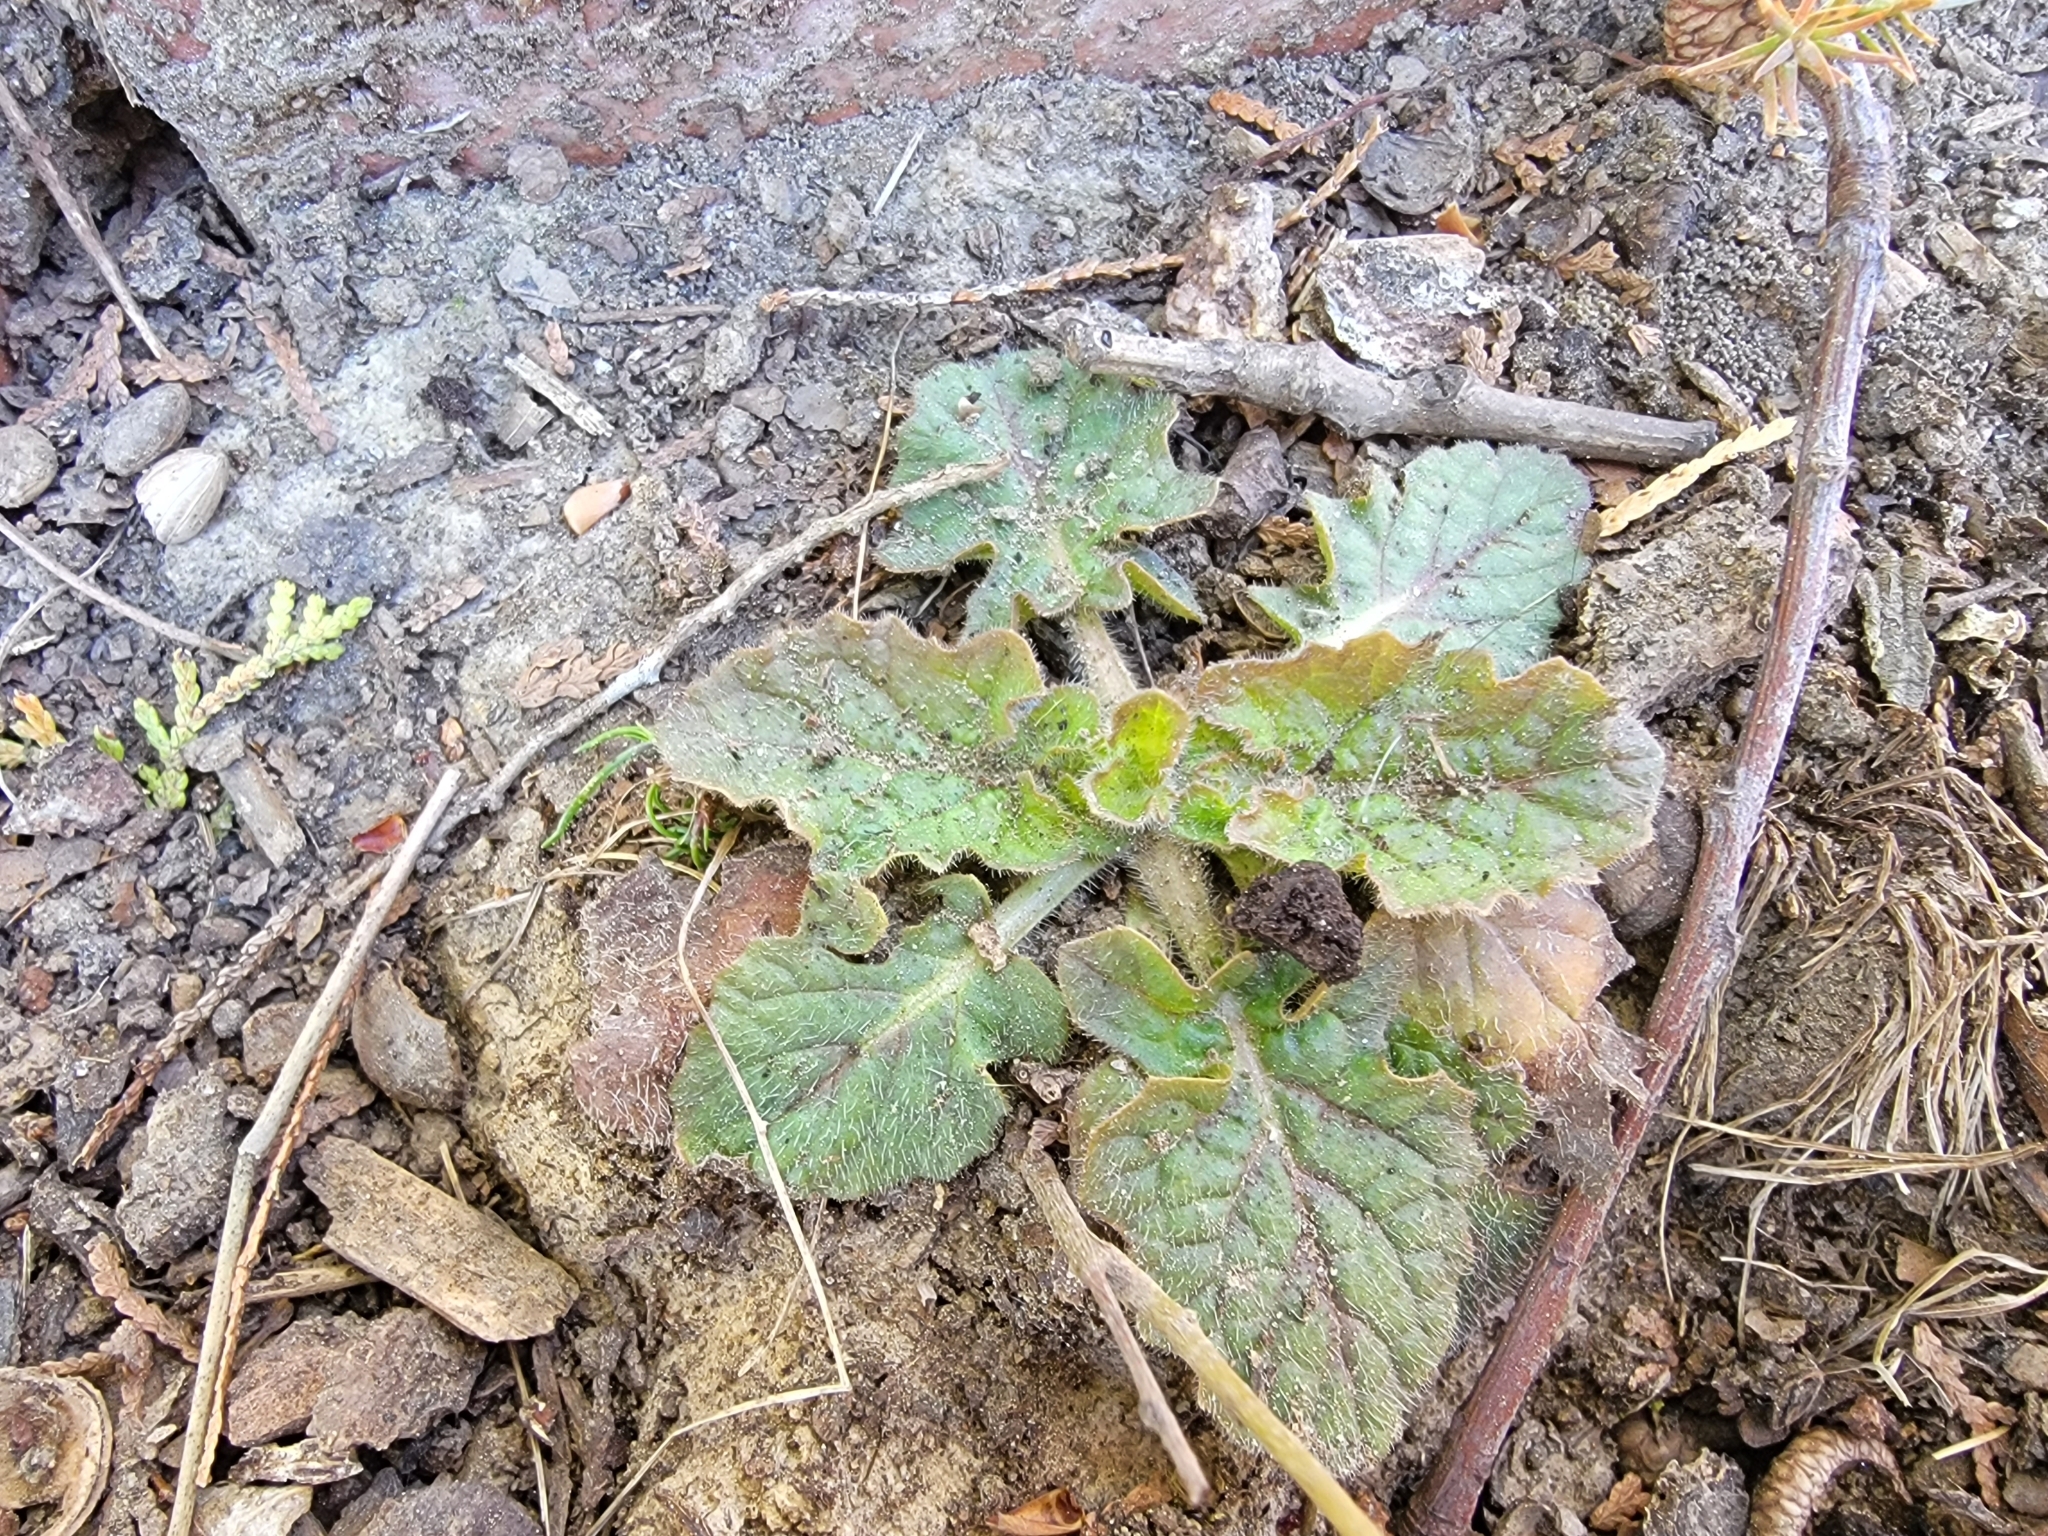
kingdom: Plantae
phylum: Tracheophyta
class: Magnoliopsida
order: Lamiales
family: Lamiaceae
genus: Salvia
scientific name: Salvia lyrata
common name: Cancerweed
